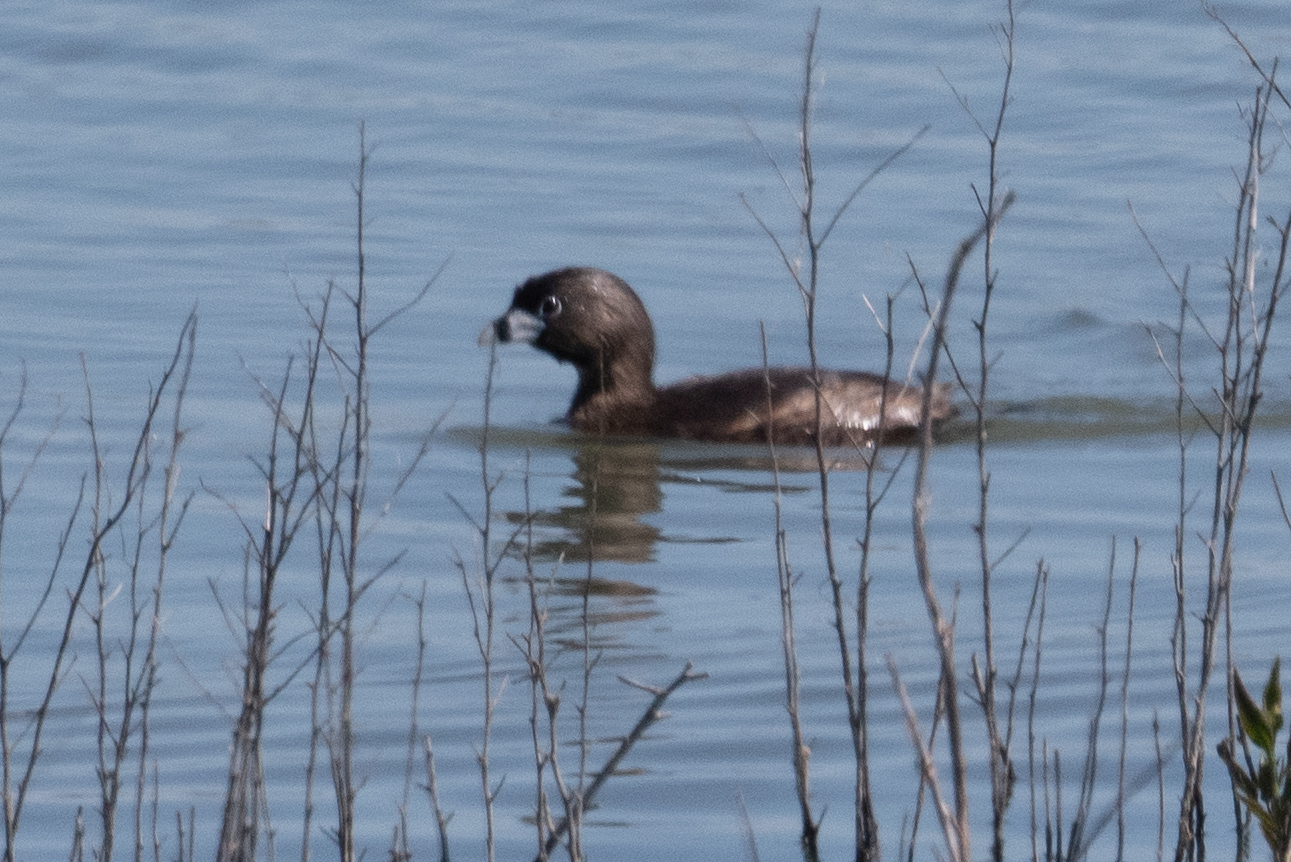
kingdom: Animalia
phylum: Chordata
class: Aves
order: Podicipediformes
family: Podicipedidae
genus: Podilymbus
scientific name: Podilymbus podiceps
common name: Pied-billed grebe
